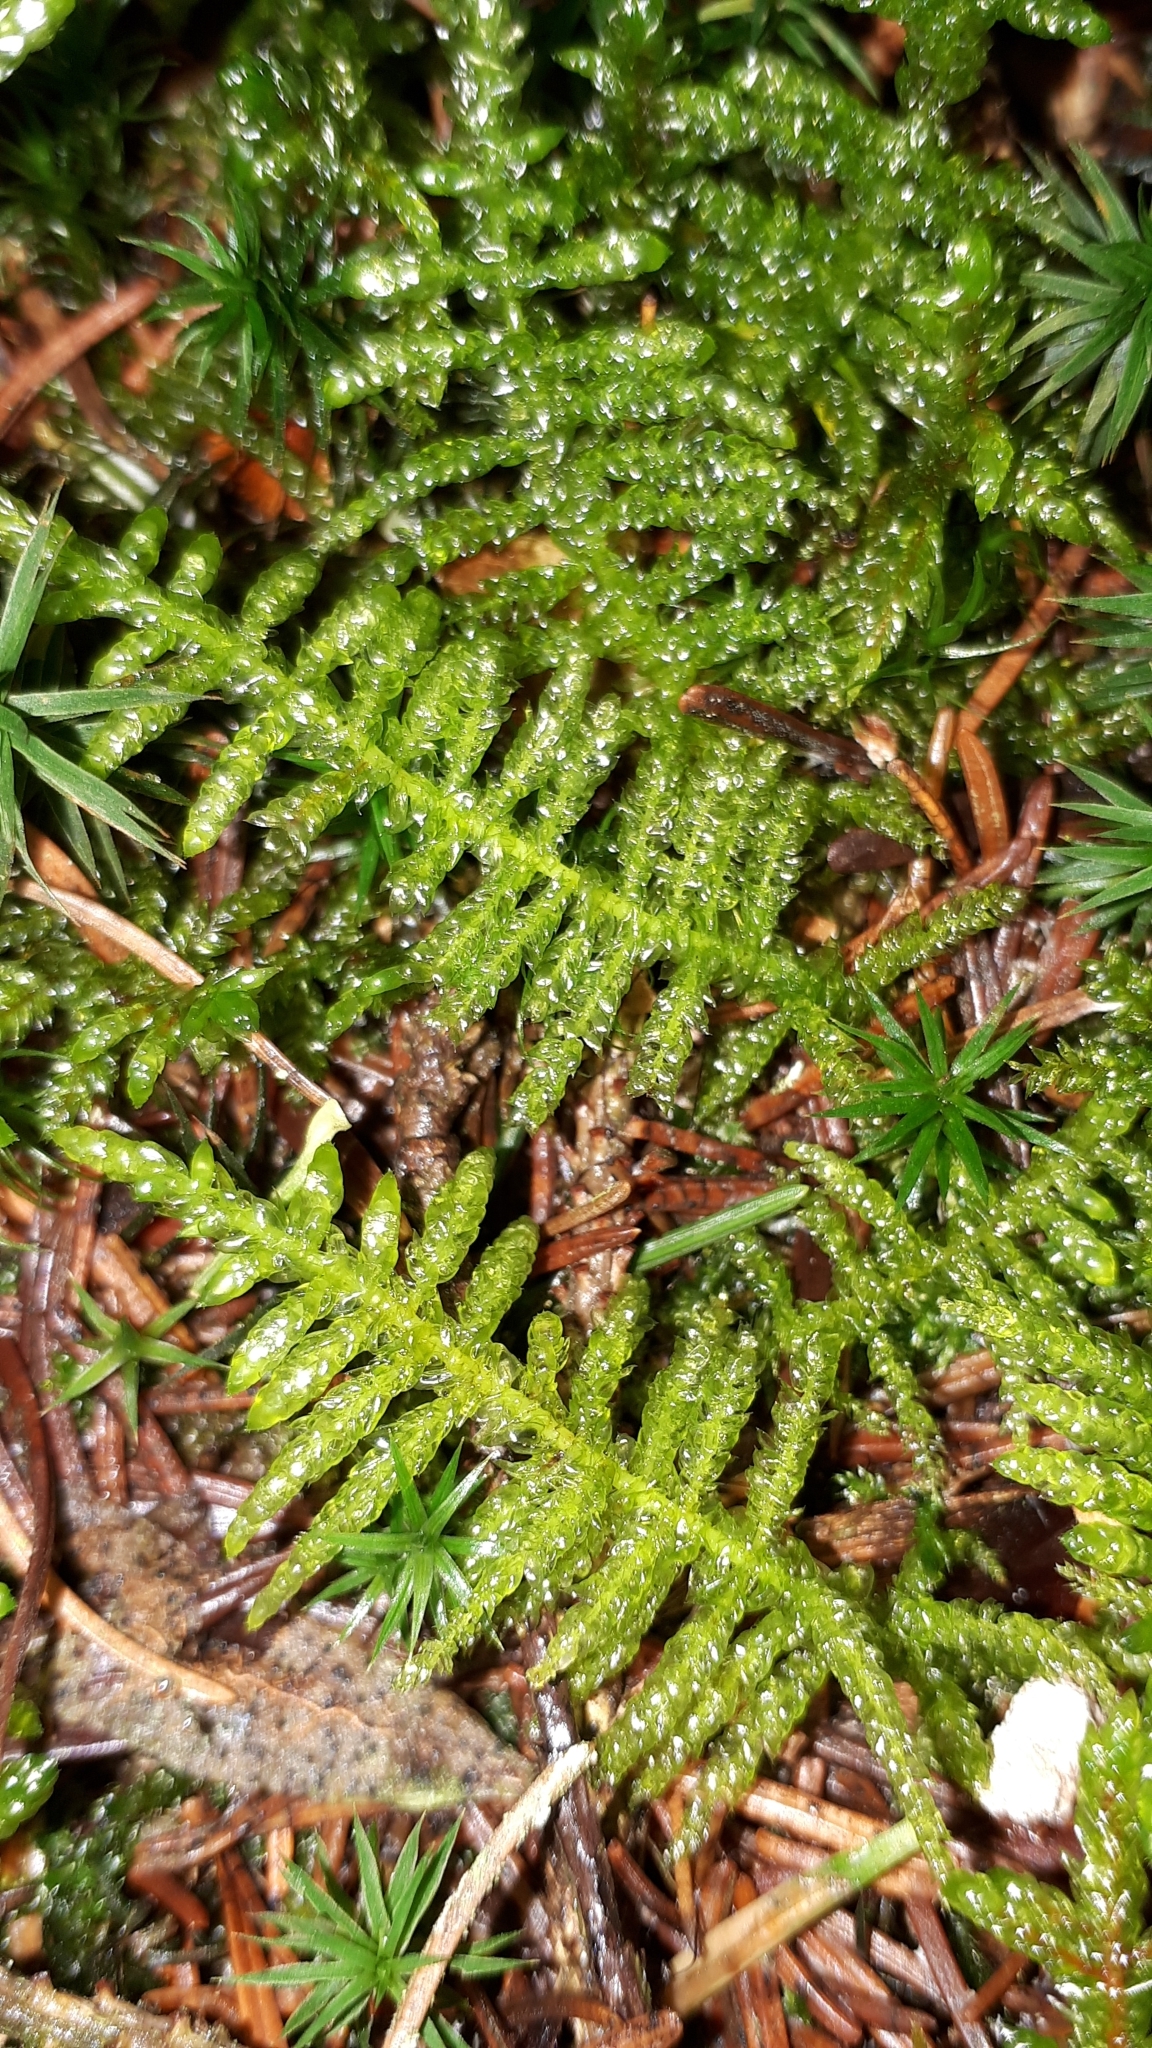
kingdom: Plantae
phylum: Bryophyta
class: Bryopsida
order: Hypnales
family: Brachytheciaceae
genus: Pseudoscleropodium
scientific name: Pseudoscleropodium purum
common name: Neat feather-moss
